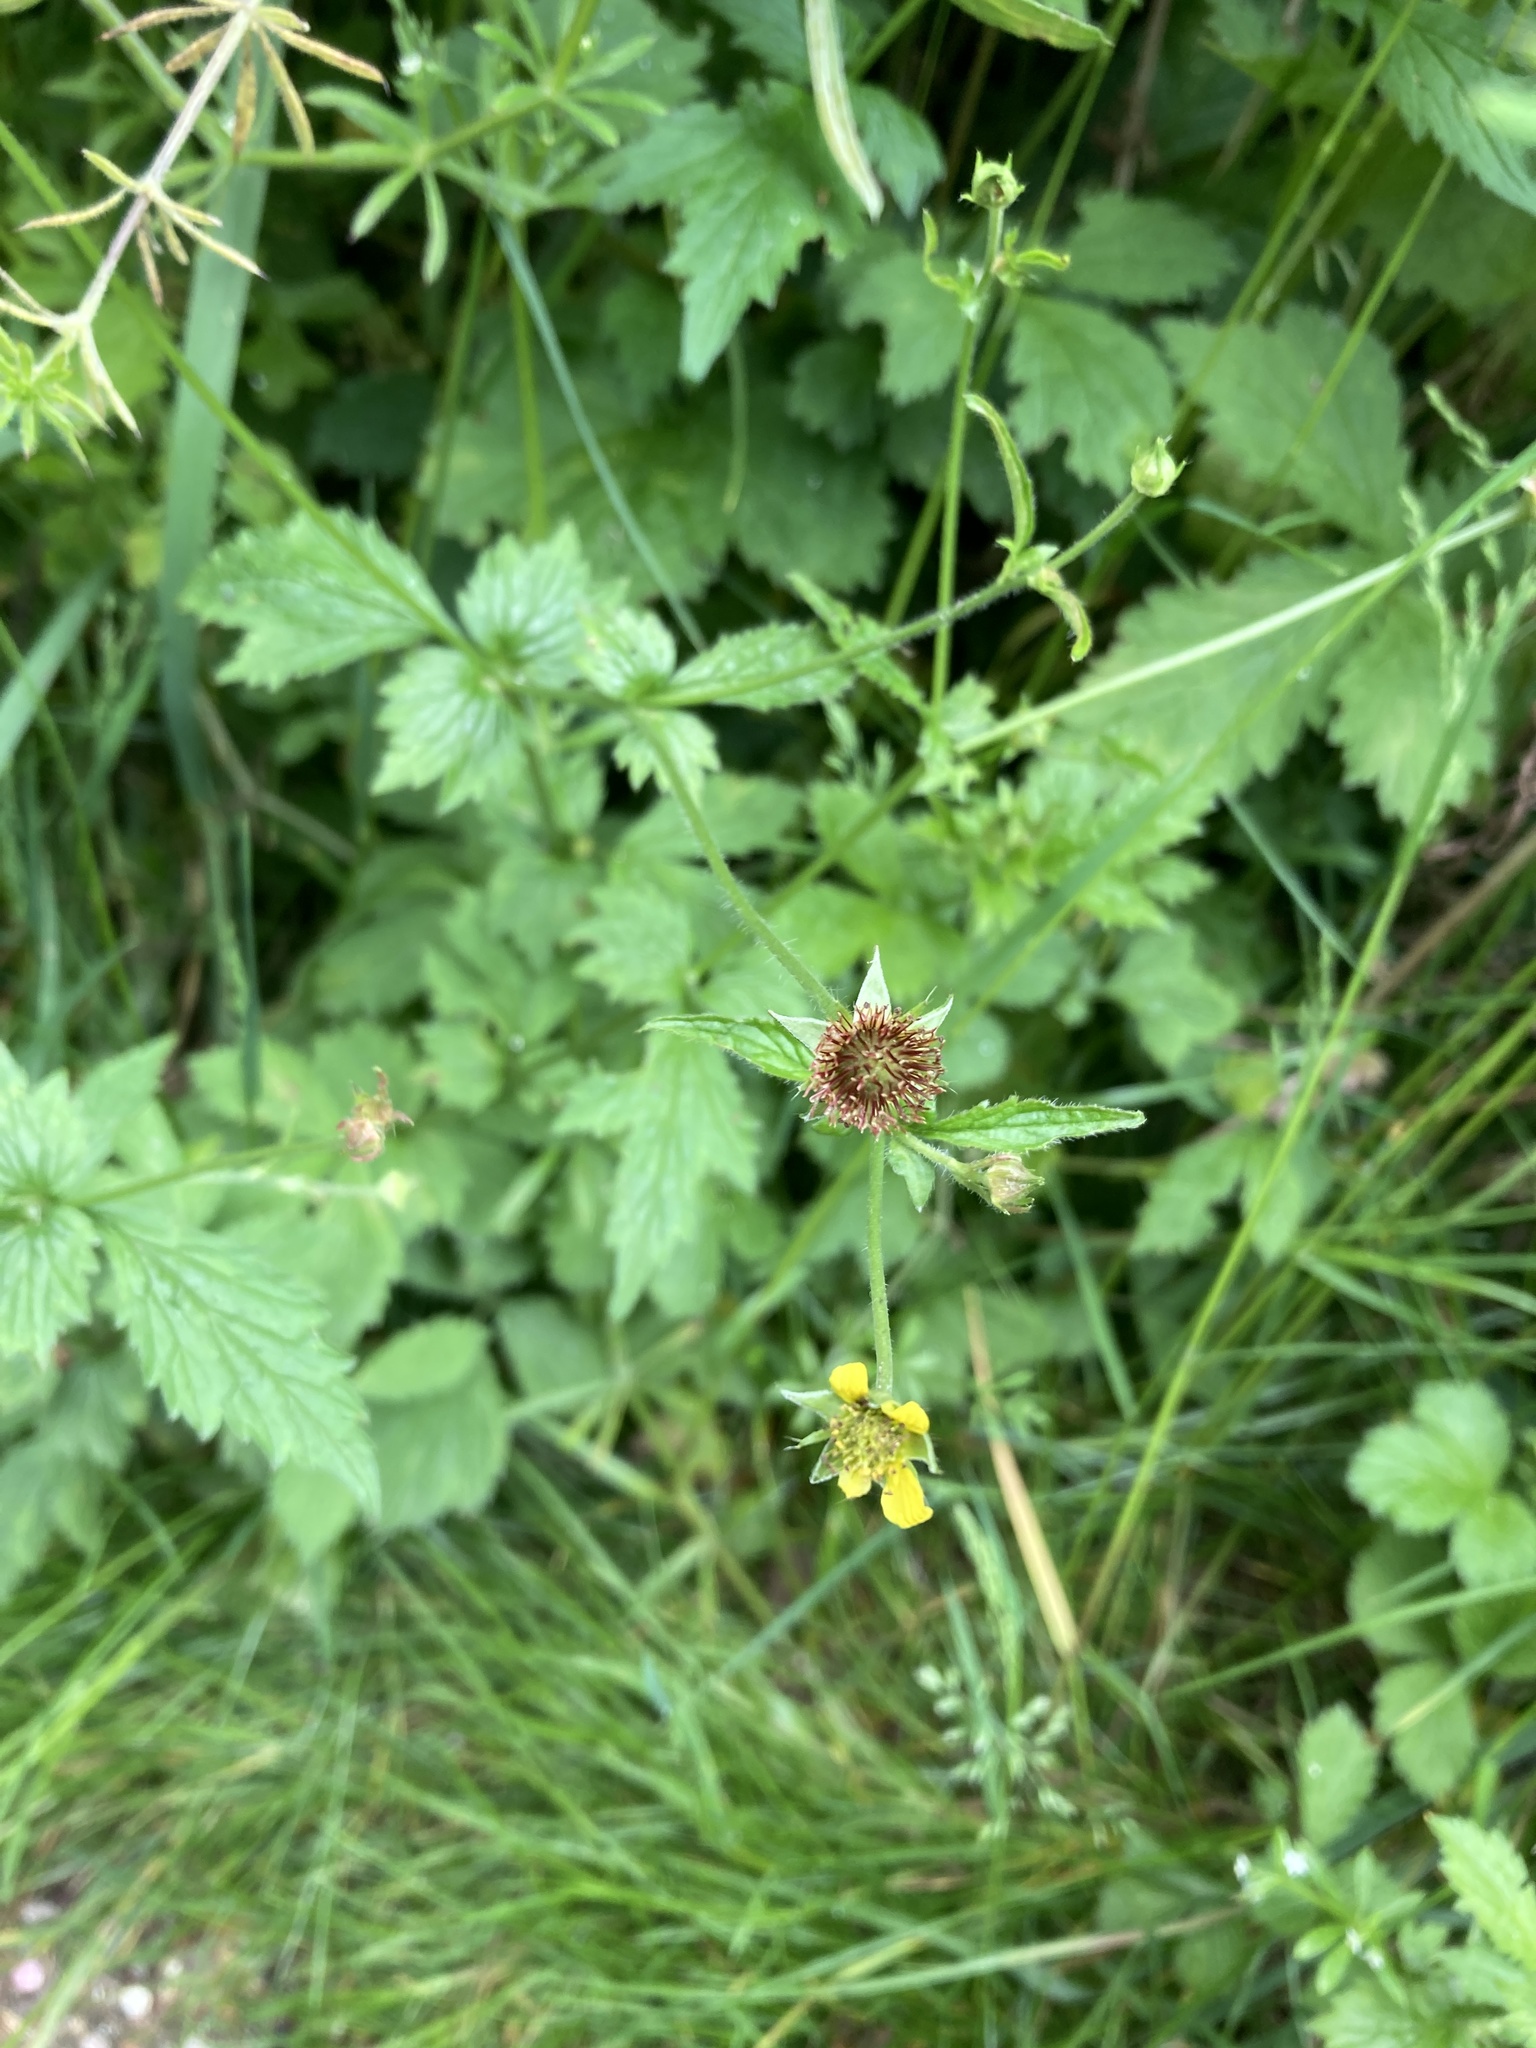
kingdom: Plantae
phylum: Tracheophyta
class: Magnoliopsida
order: Rosales
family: Rosaceae
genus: Geum
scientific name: Geum urbanum
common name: Wood avens
